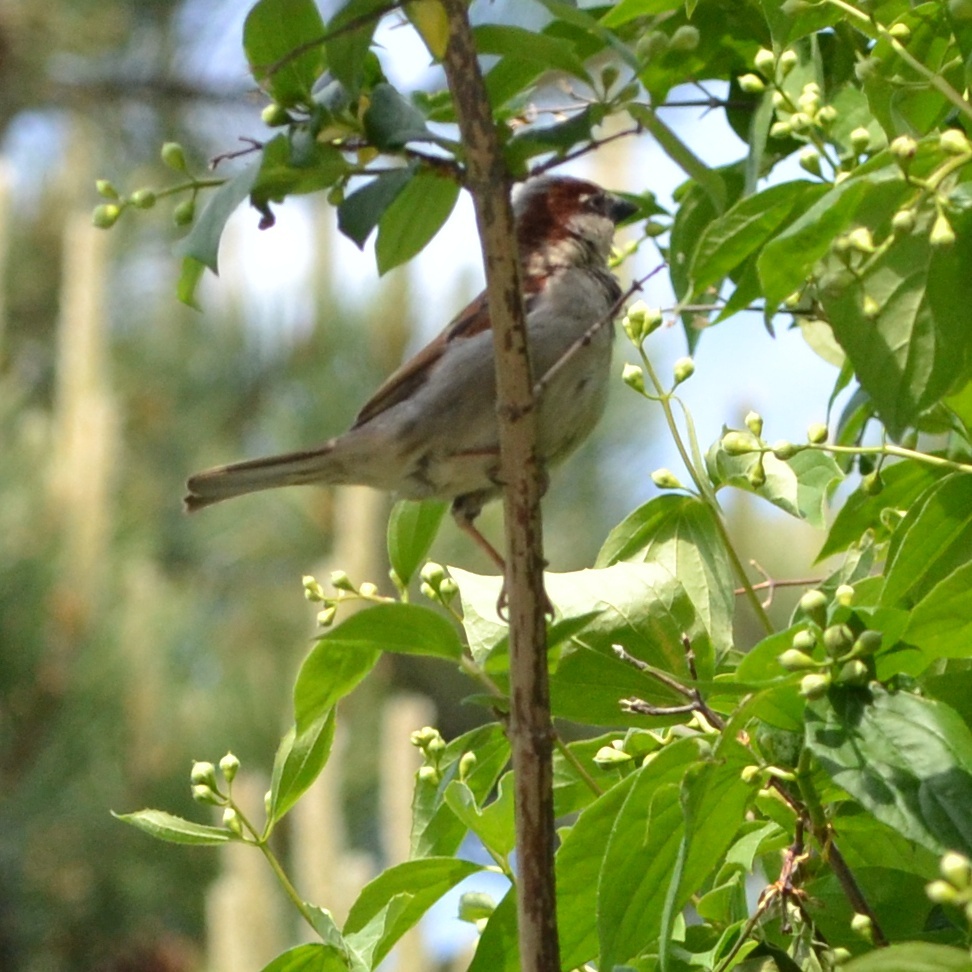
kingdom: Animalia
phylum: Chordata
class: Aves
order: Passeriformes
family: Passeridae
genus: Passer
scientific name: Passer domesticus
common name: House sparrow
